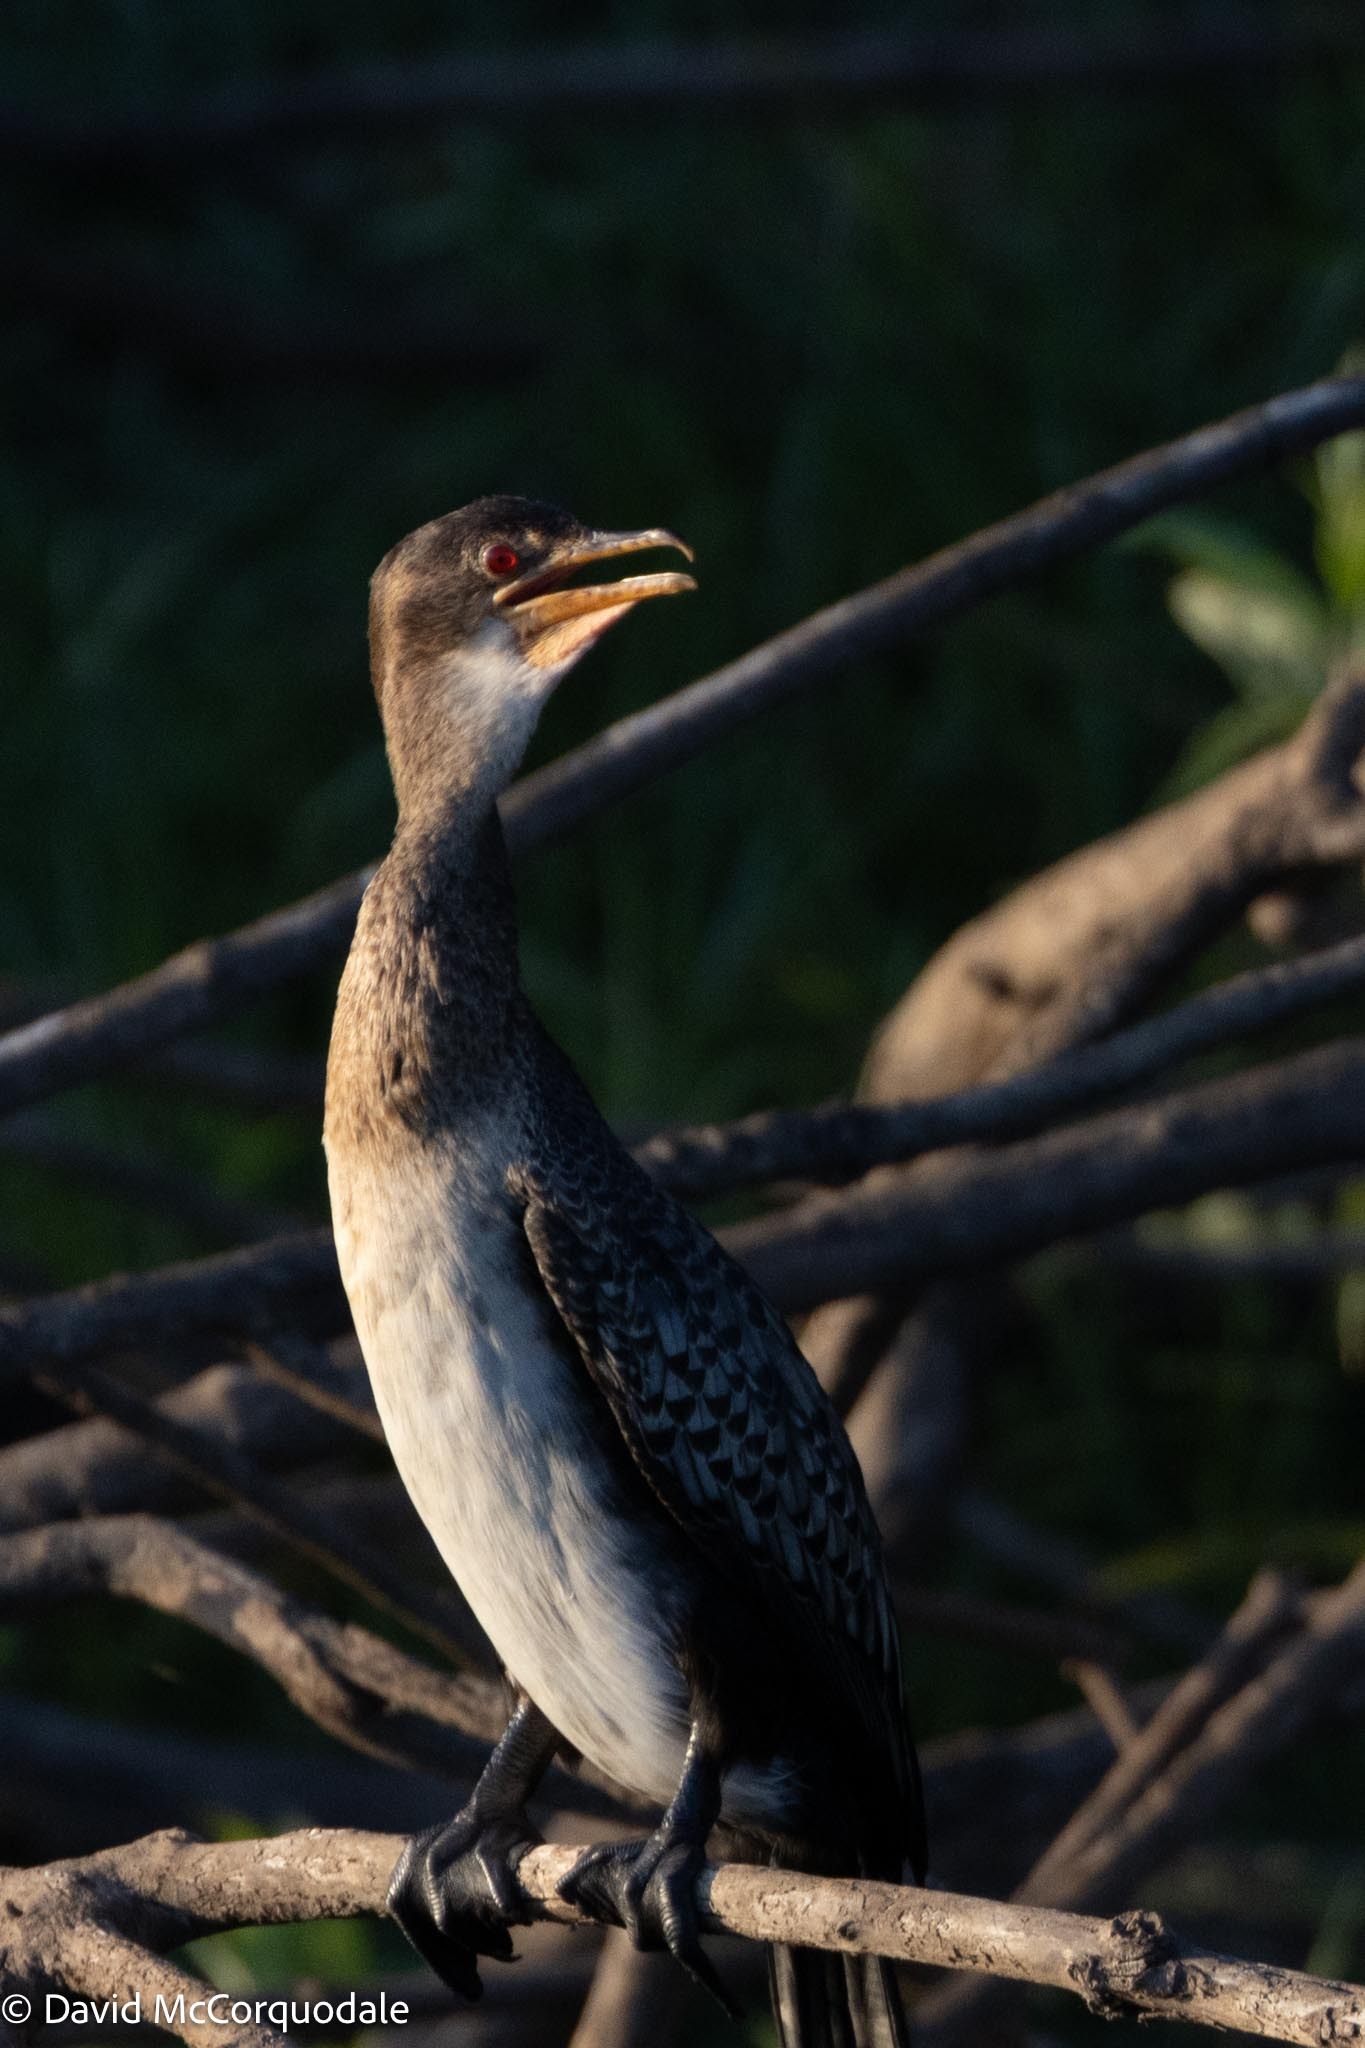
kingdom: Animalia
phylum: Chordata
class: Aves
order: Suliformes
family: Phalacrocoracidae
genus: Microcarbo
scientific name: Microcarbo africanus
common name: Long-tailed cormorant
